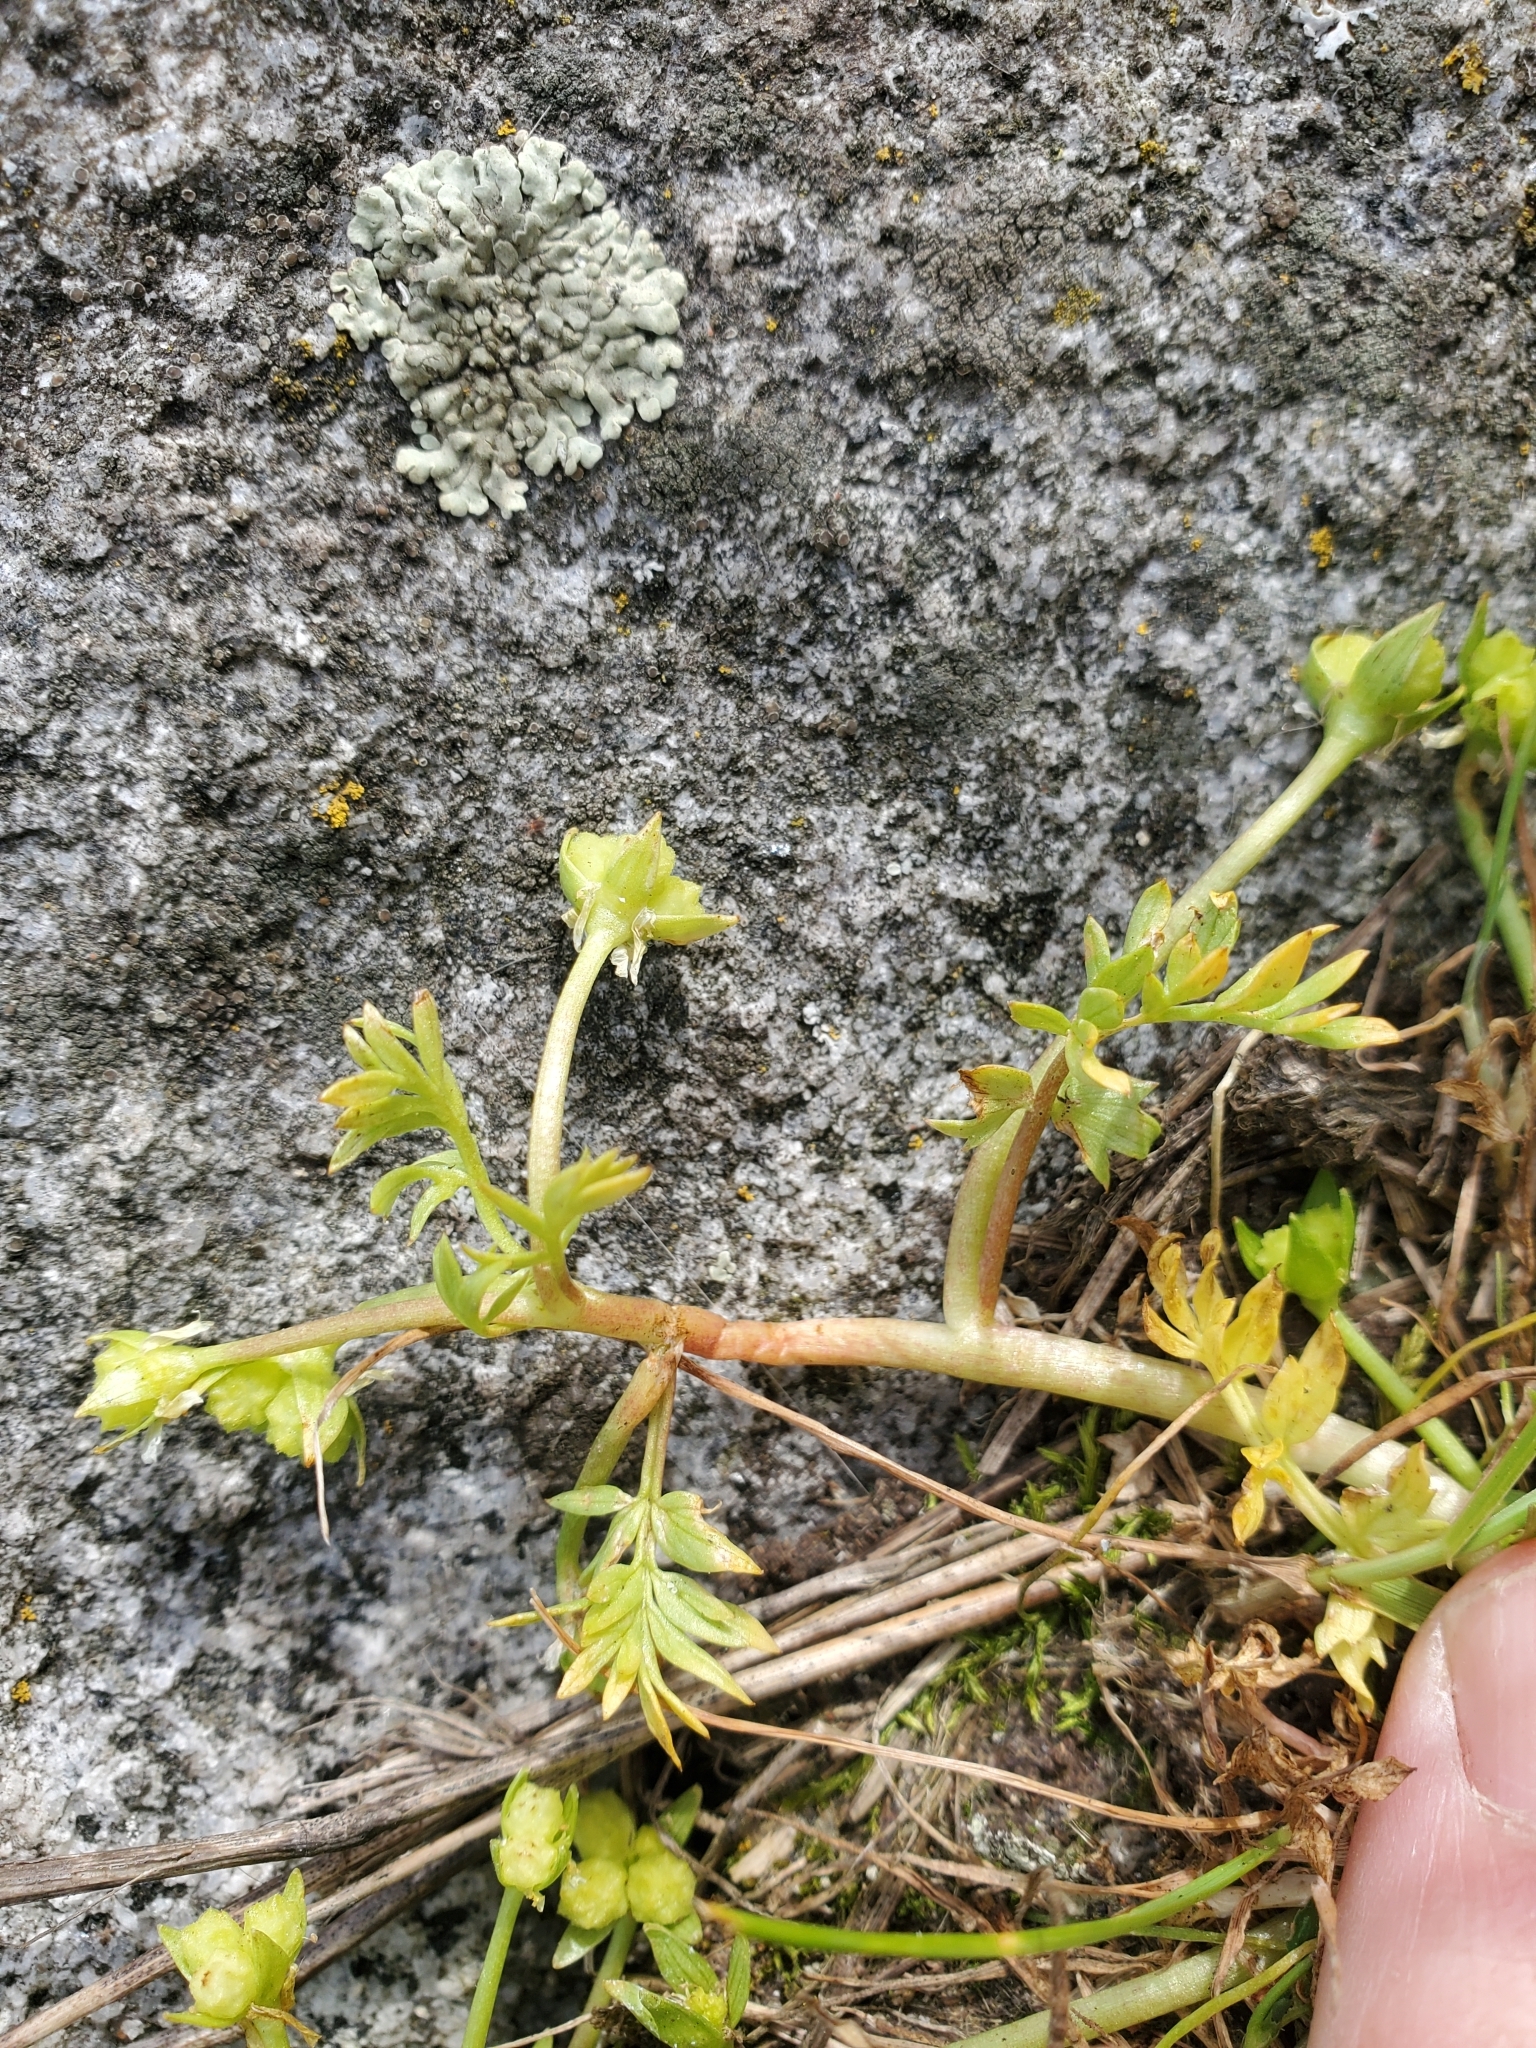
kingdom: Plantae
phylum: Tracheophyta
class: Magnoliopsida
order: Brassicales
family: Limnanthaceae
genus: Limnanthes
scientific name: Limnanthes macounii
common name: Macoun's meadowfoam
